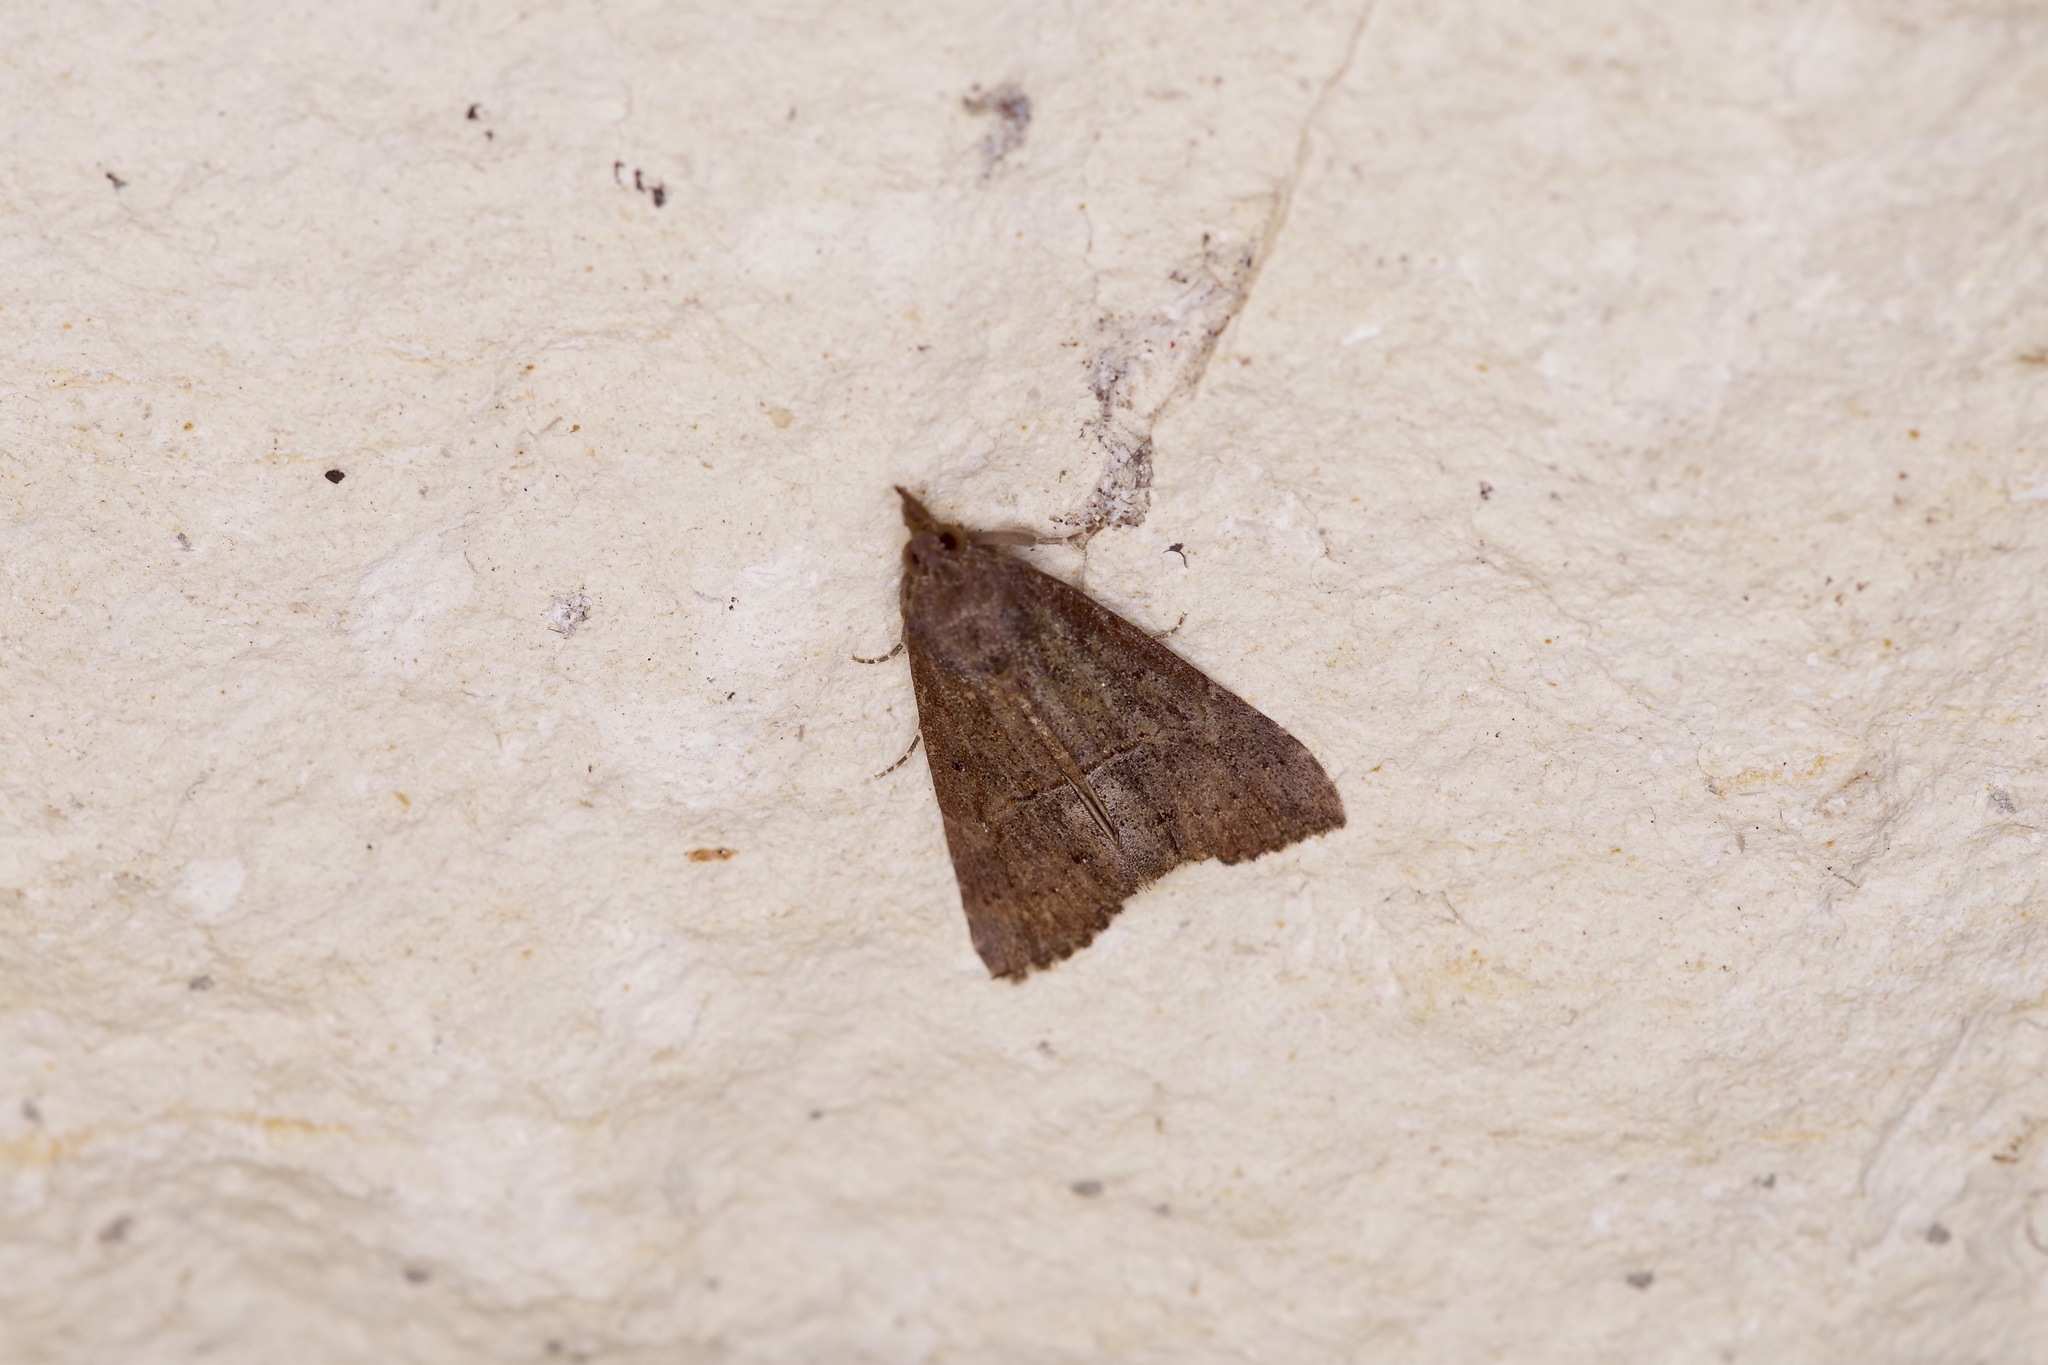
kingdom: Animalia
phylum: Arthropoda
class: Insecta
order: Lepidoptera
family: Erebidae
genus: Hypena
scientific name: Hypena scabra
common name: Green cloverworm
